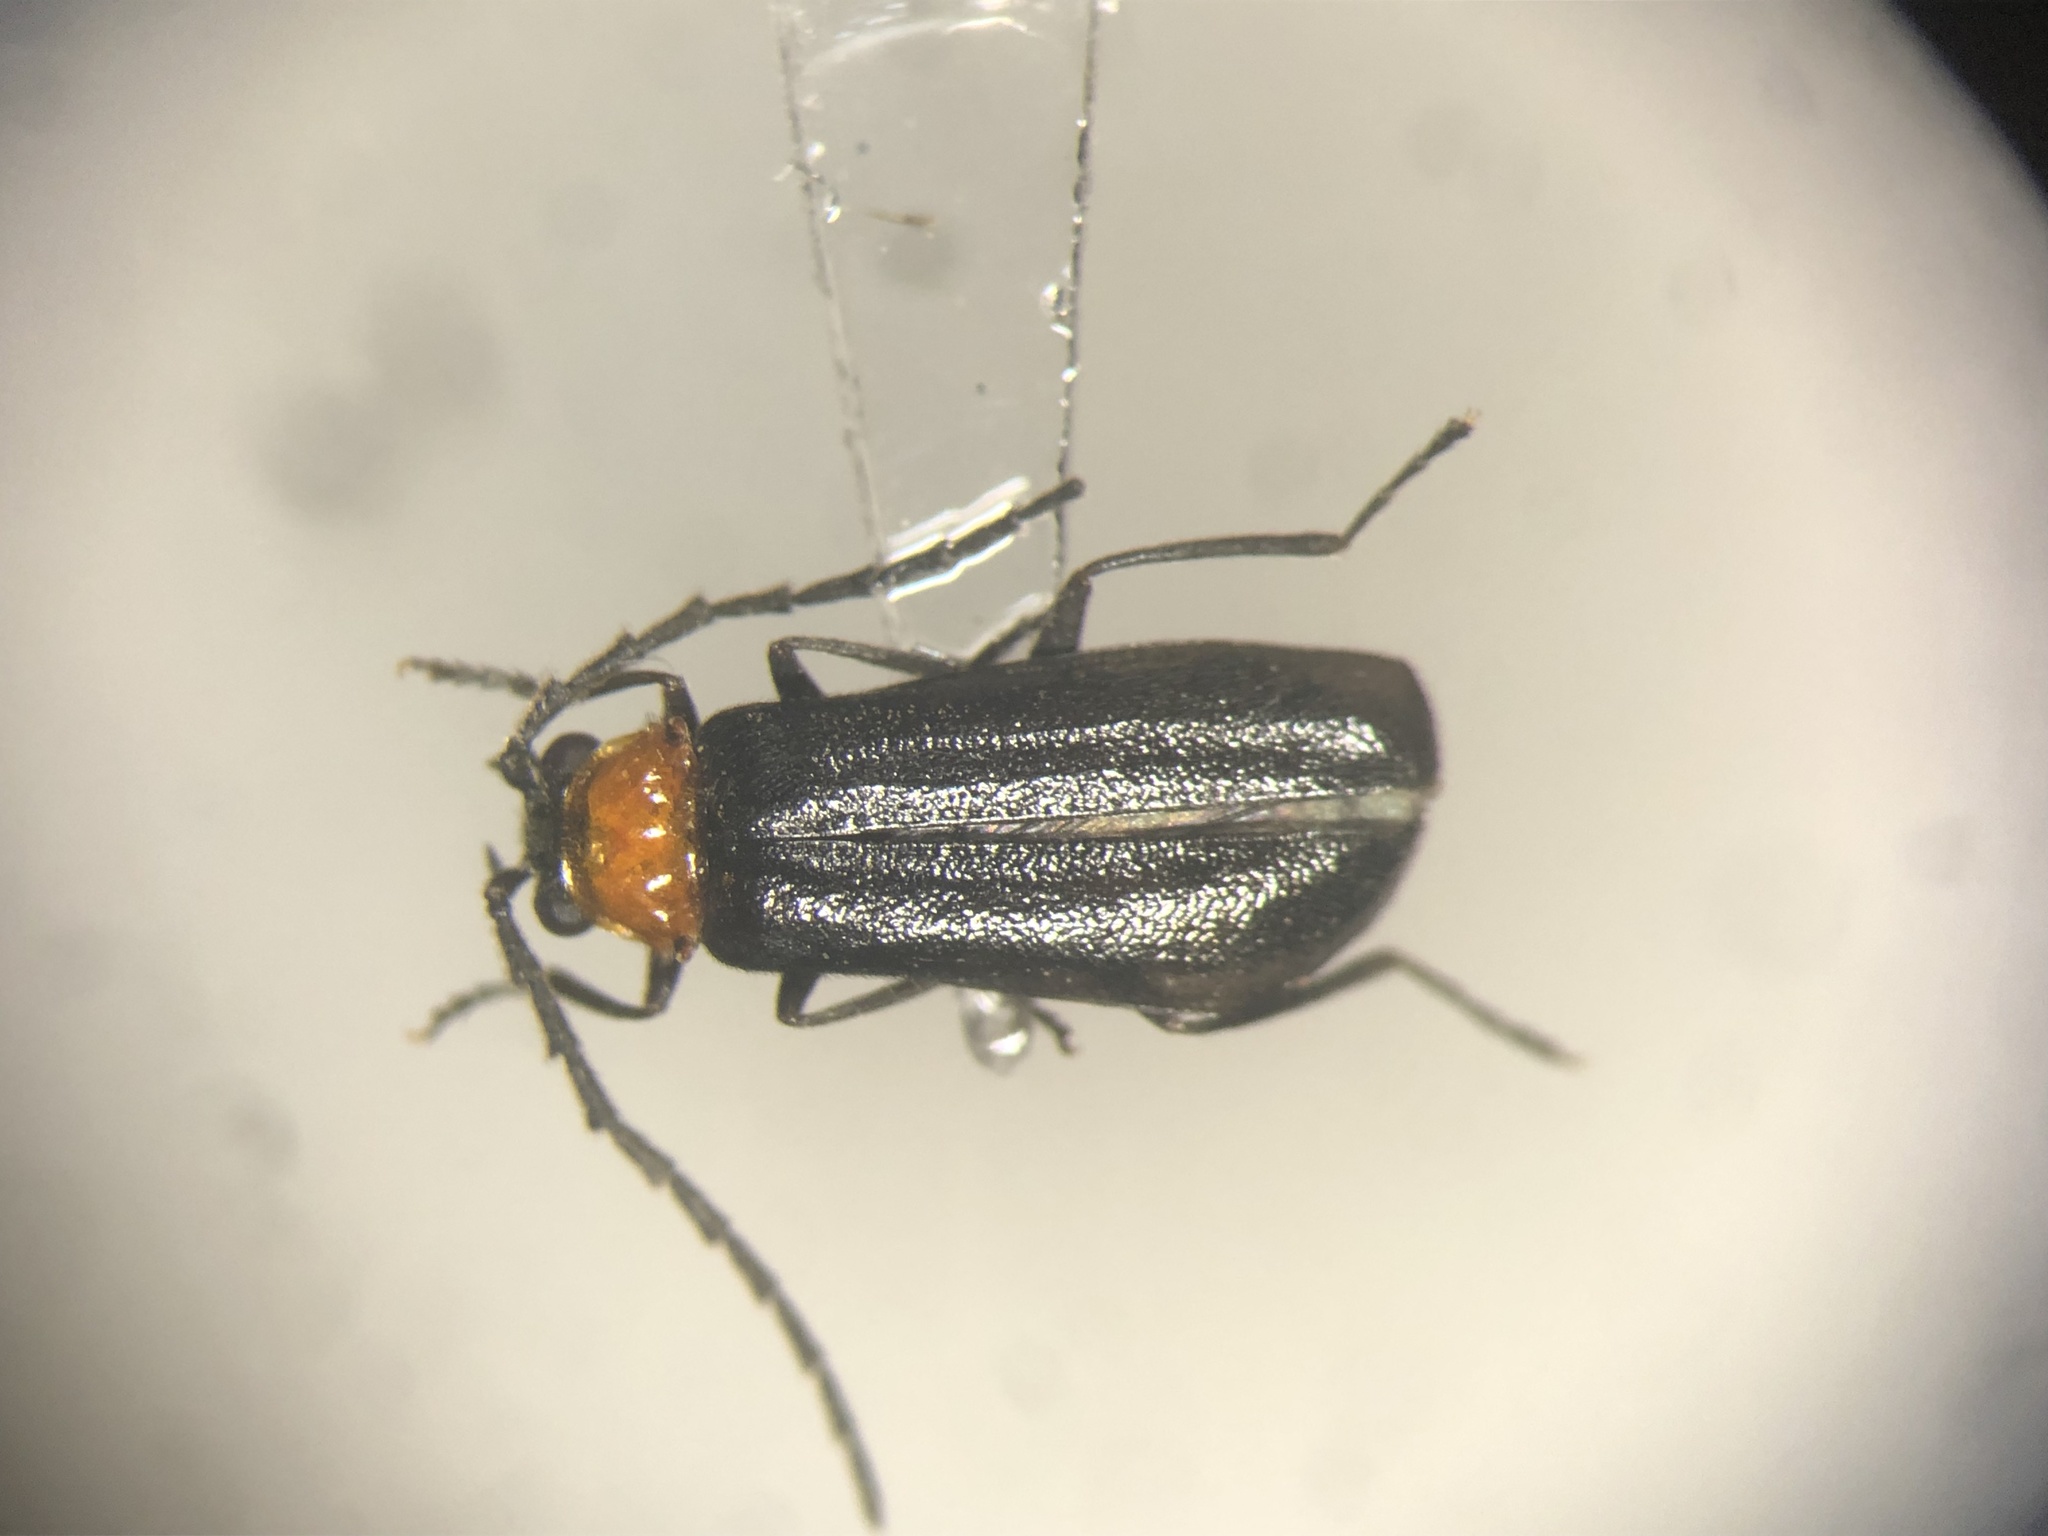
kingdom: Animalia
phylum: Arthropoda
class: Insecta
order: Coleoptera
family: Cantharidae
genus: Silis
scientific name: Silis spathulata
